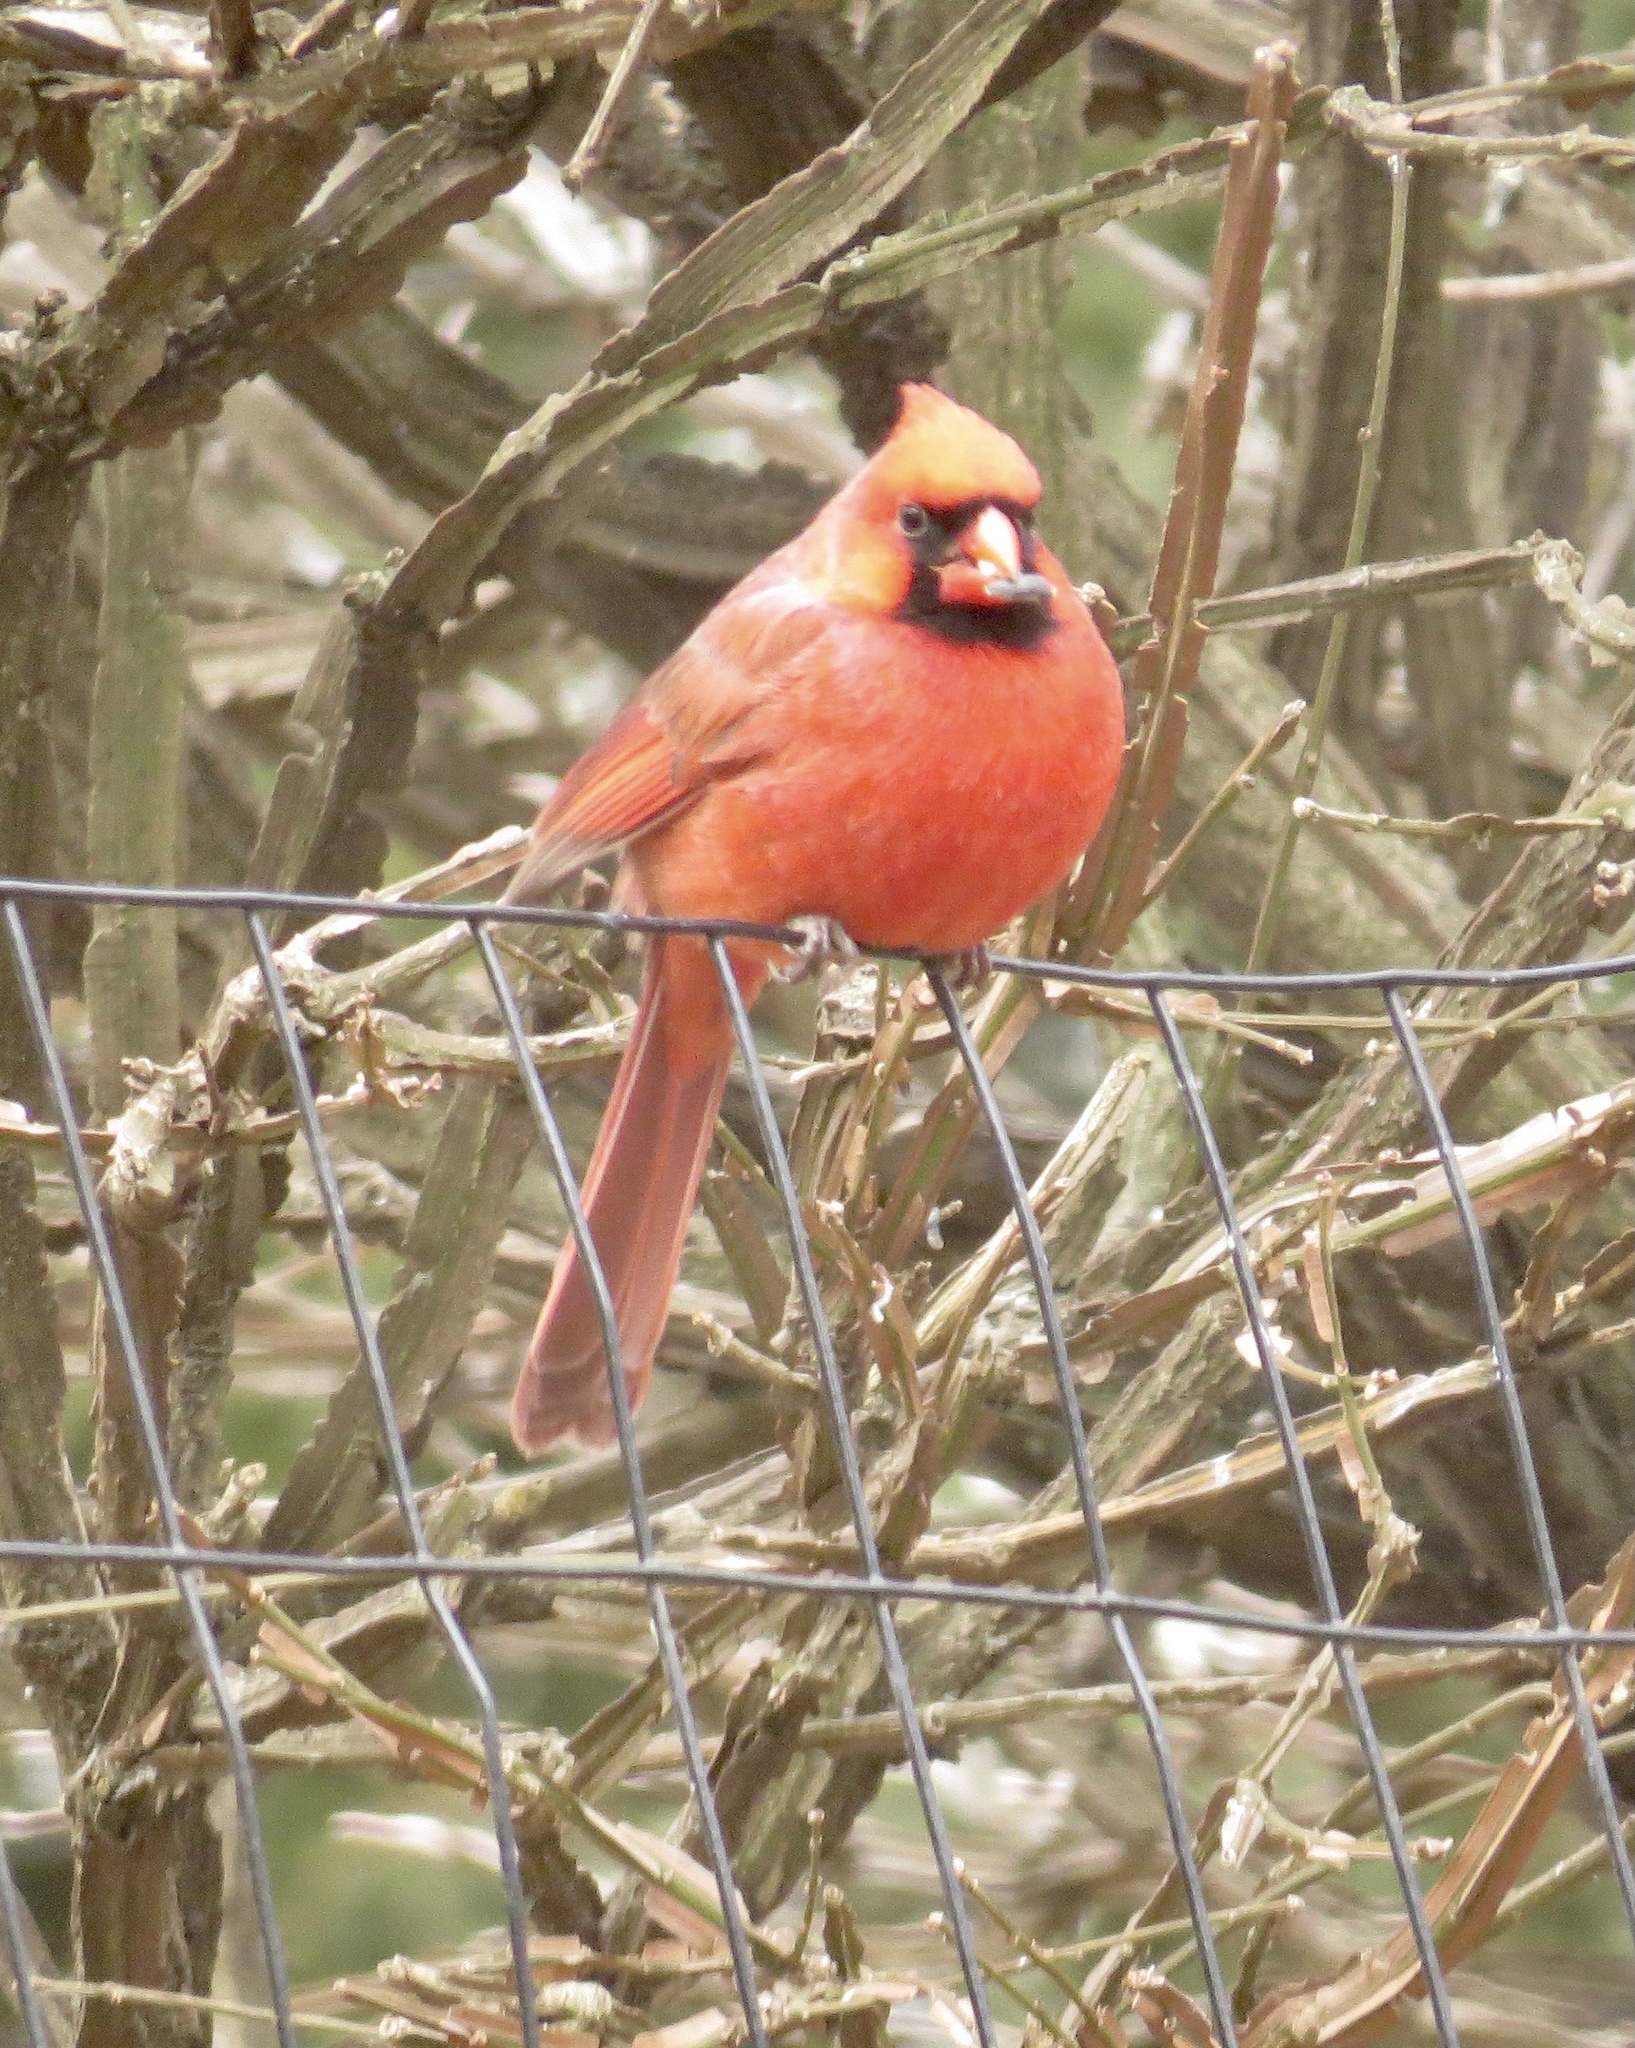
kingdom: Animalia
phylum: Chordata
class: Aves
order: Passeriformes
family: Cardinalidae
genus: Cardinalis
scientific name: Cardinalis cardinalis
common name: Northern cardinal
